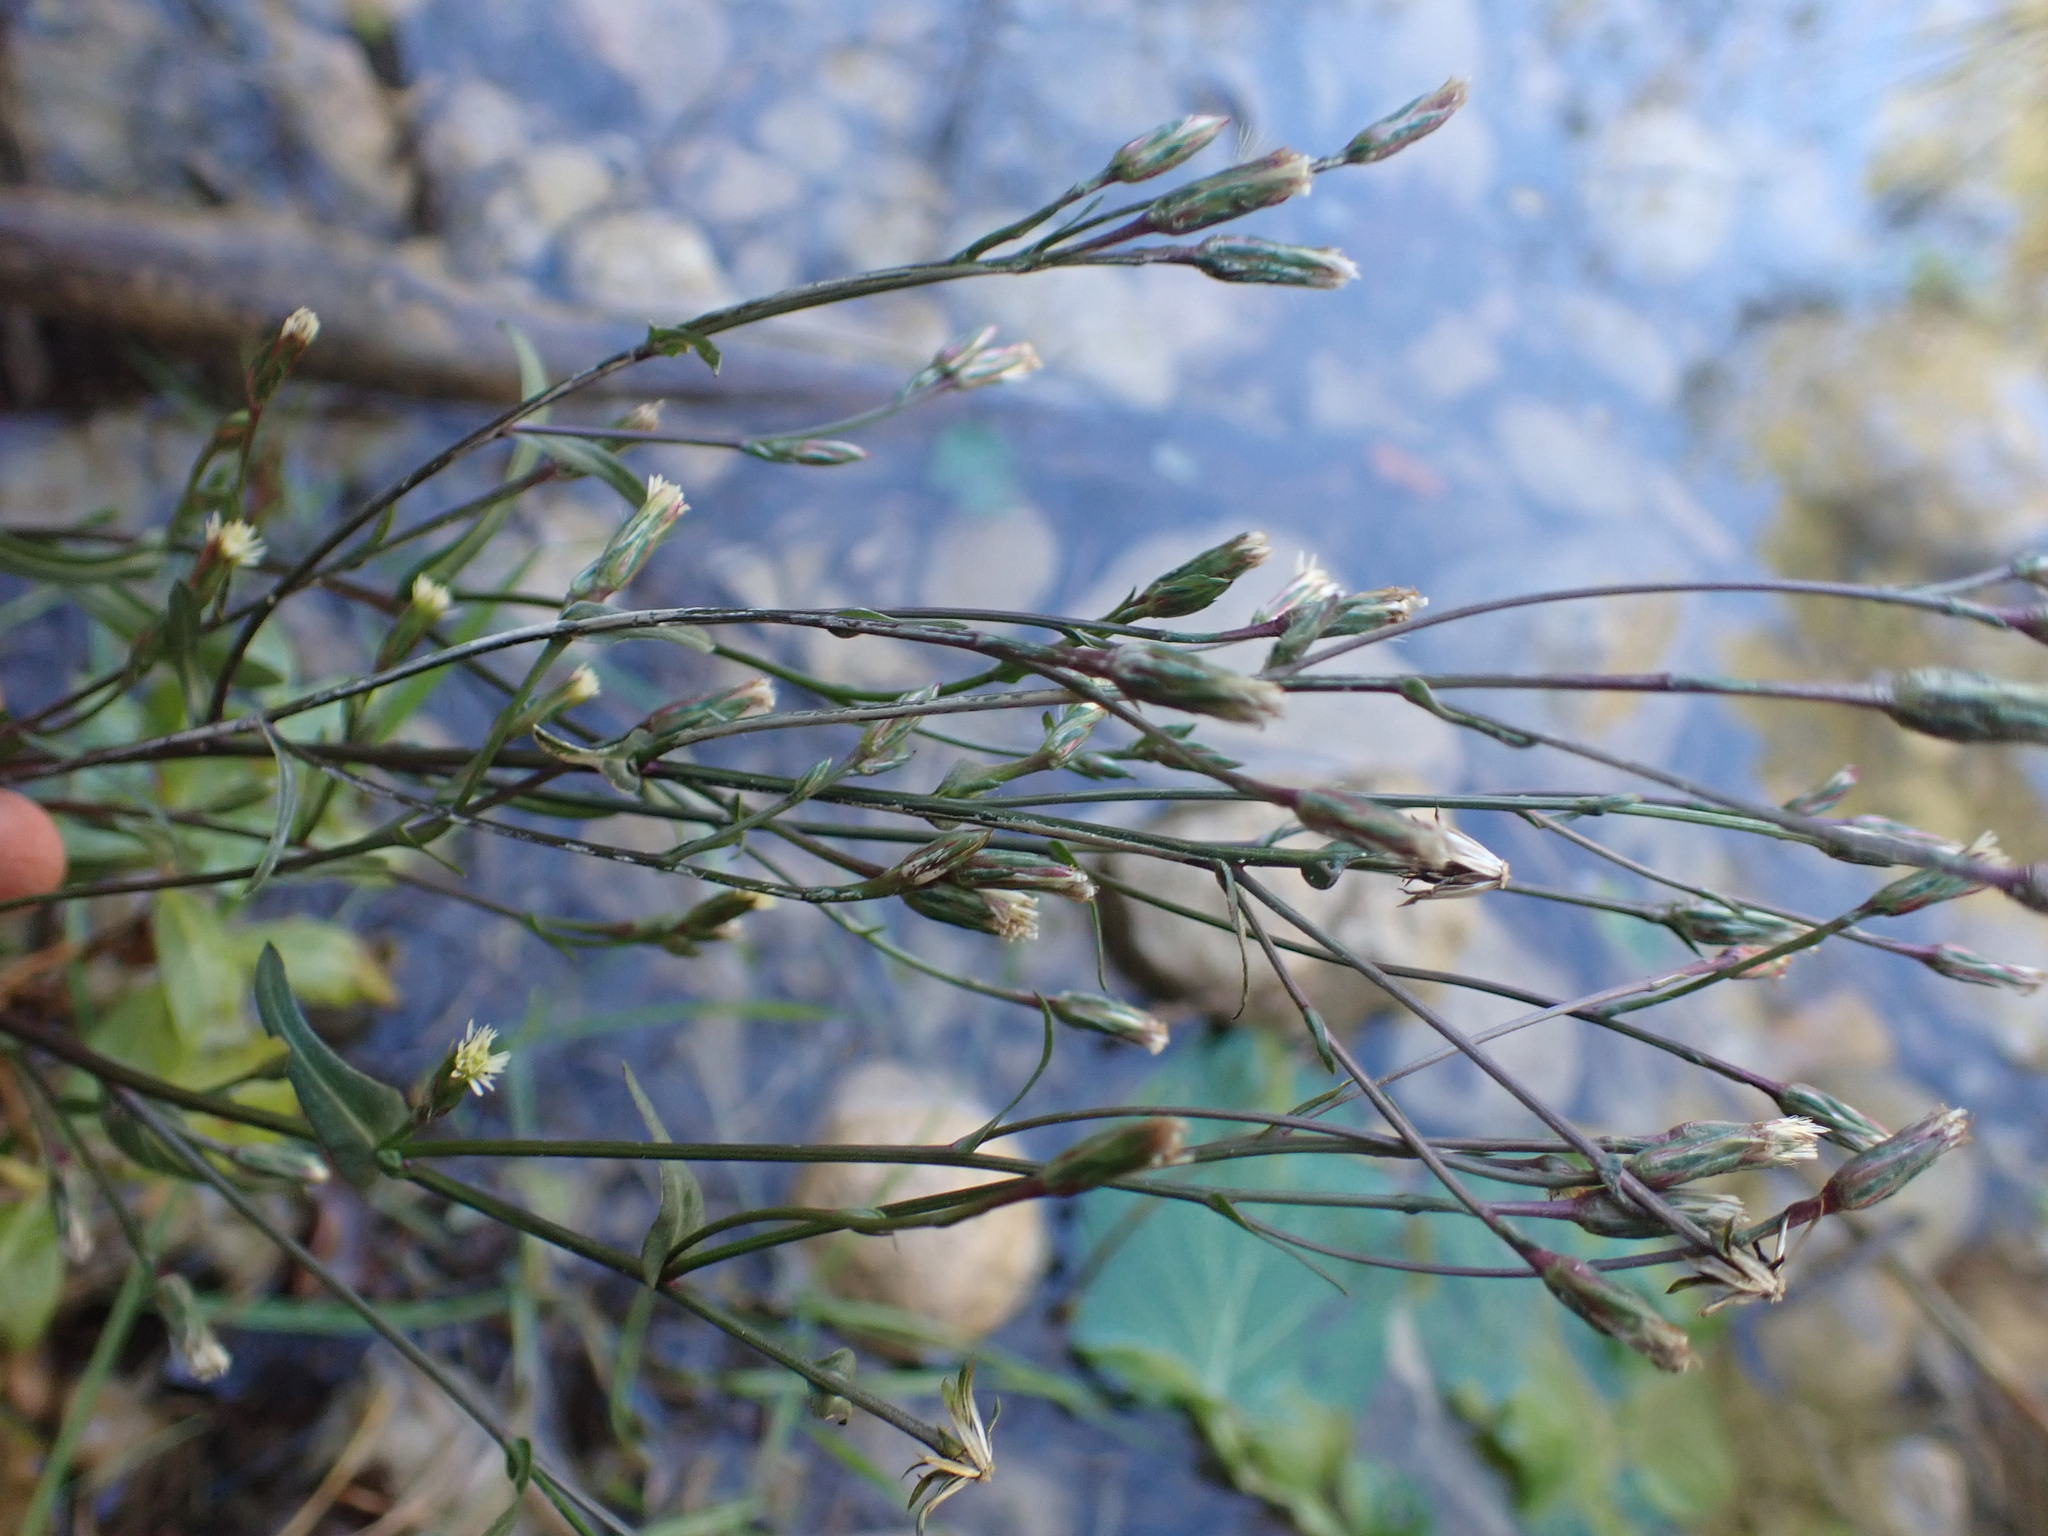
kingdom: Plantae
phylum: Tracheophyta
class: Magnoliopsida
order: Asterales
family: Asteraceae
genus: Symphyotrichum
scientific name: Symphyotrichum squamatum
